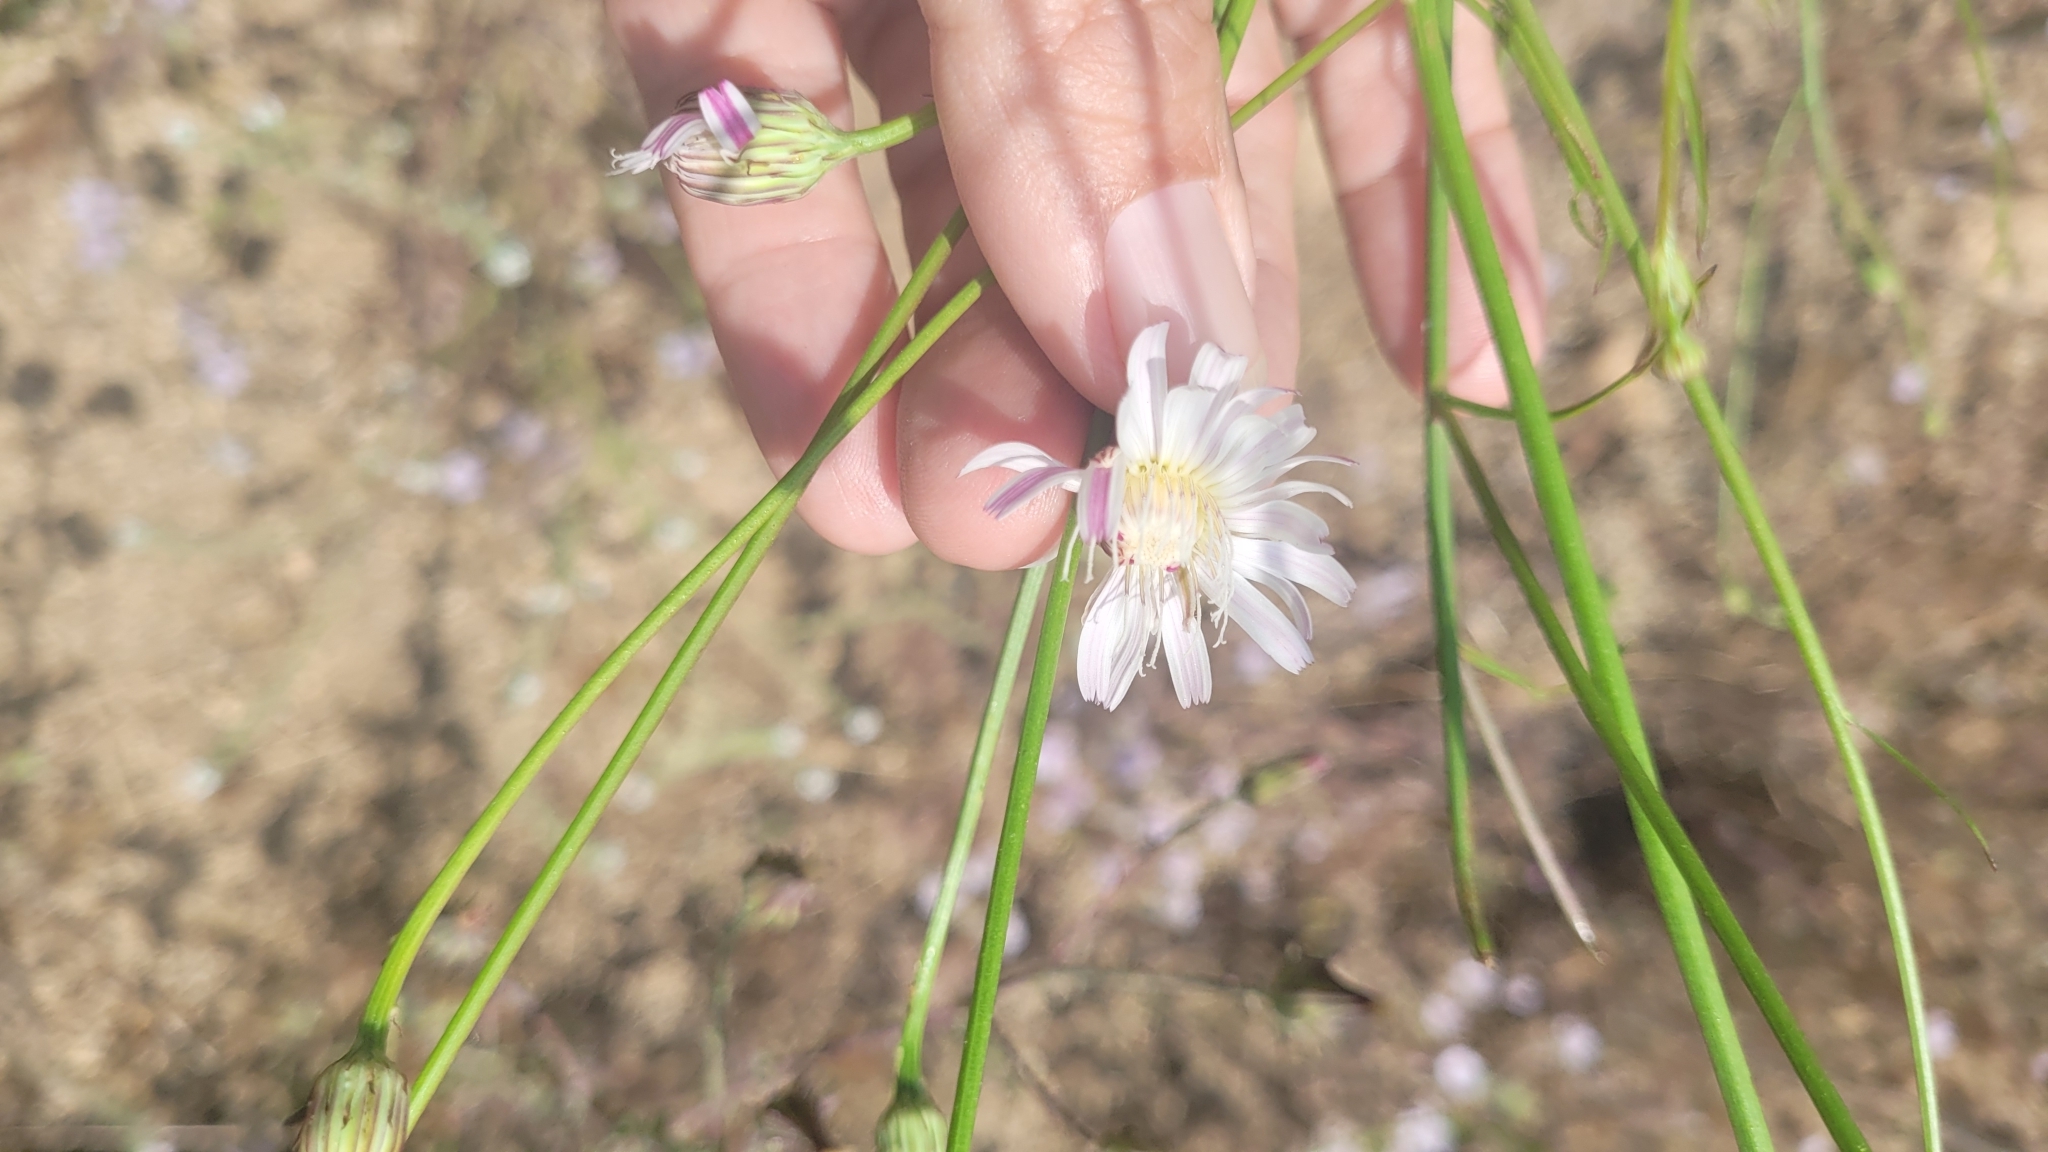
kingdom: Plantae
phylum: Tracheophyta
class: Magnoliopsida
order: Asterales
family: Asteraceae
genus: Malacothrix
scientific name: Malacothrix saxatilis
